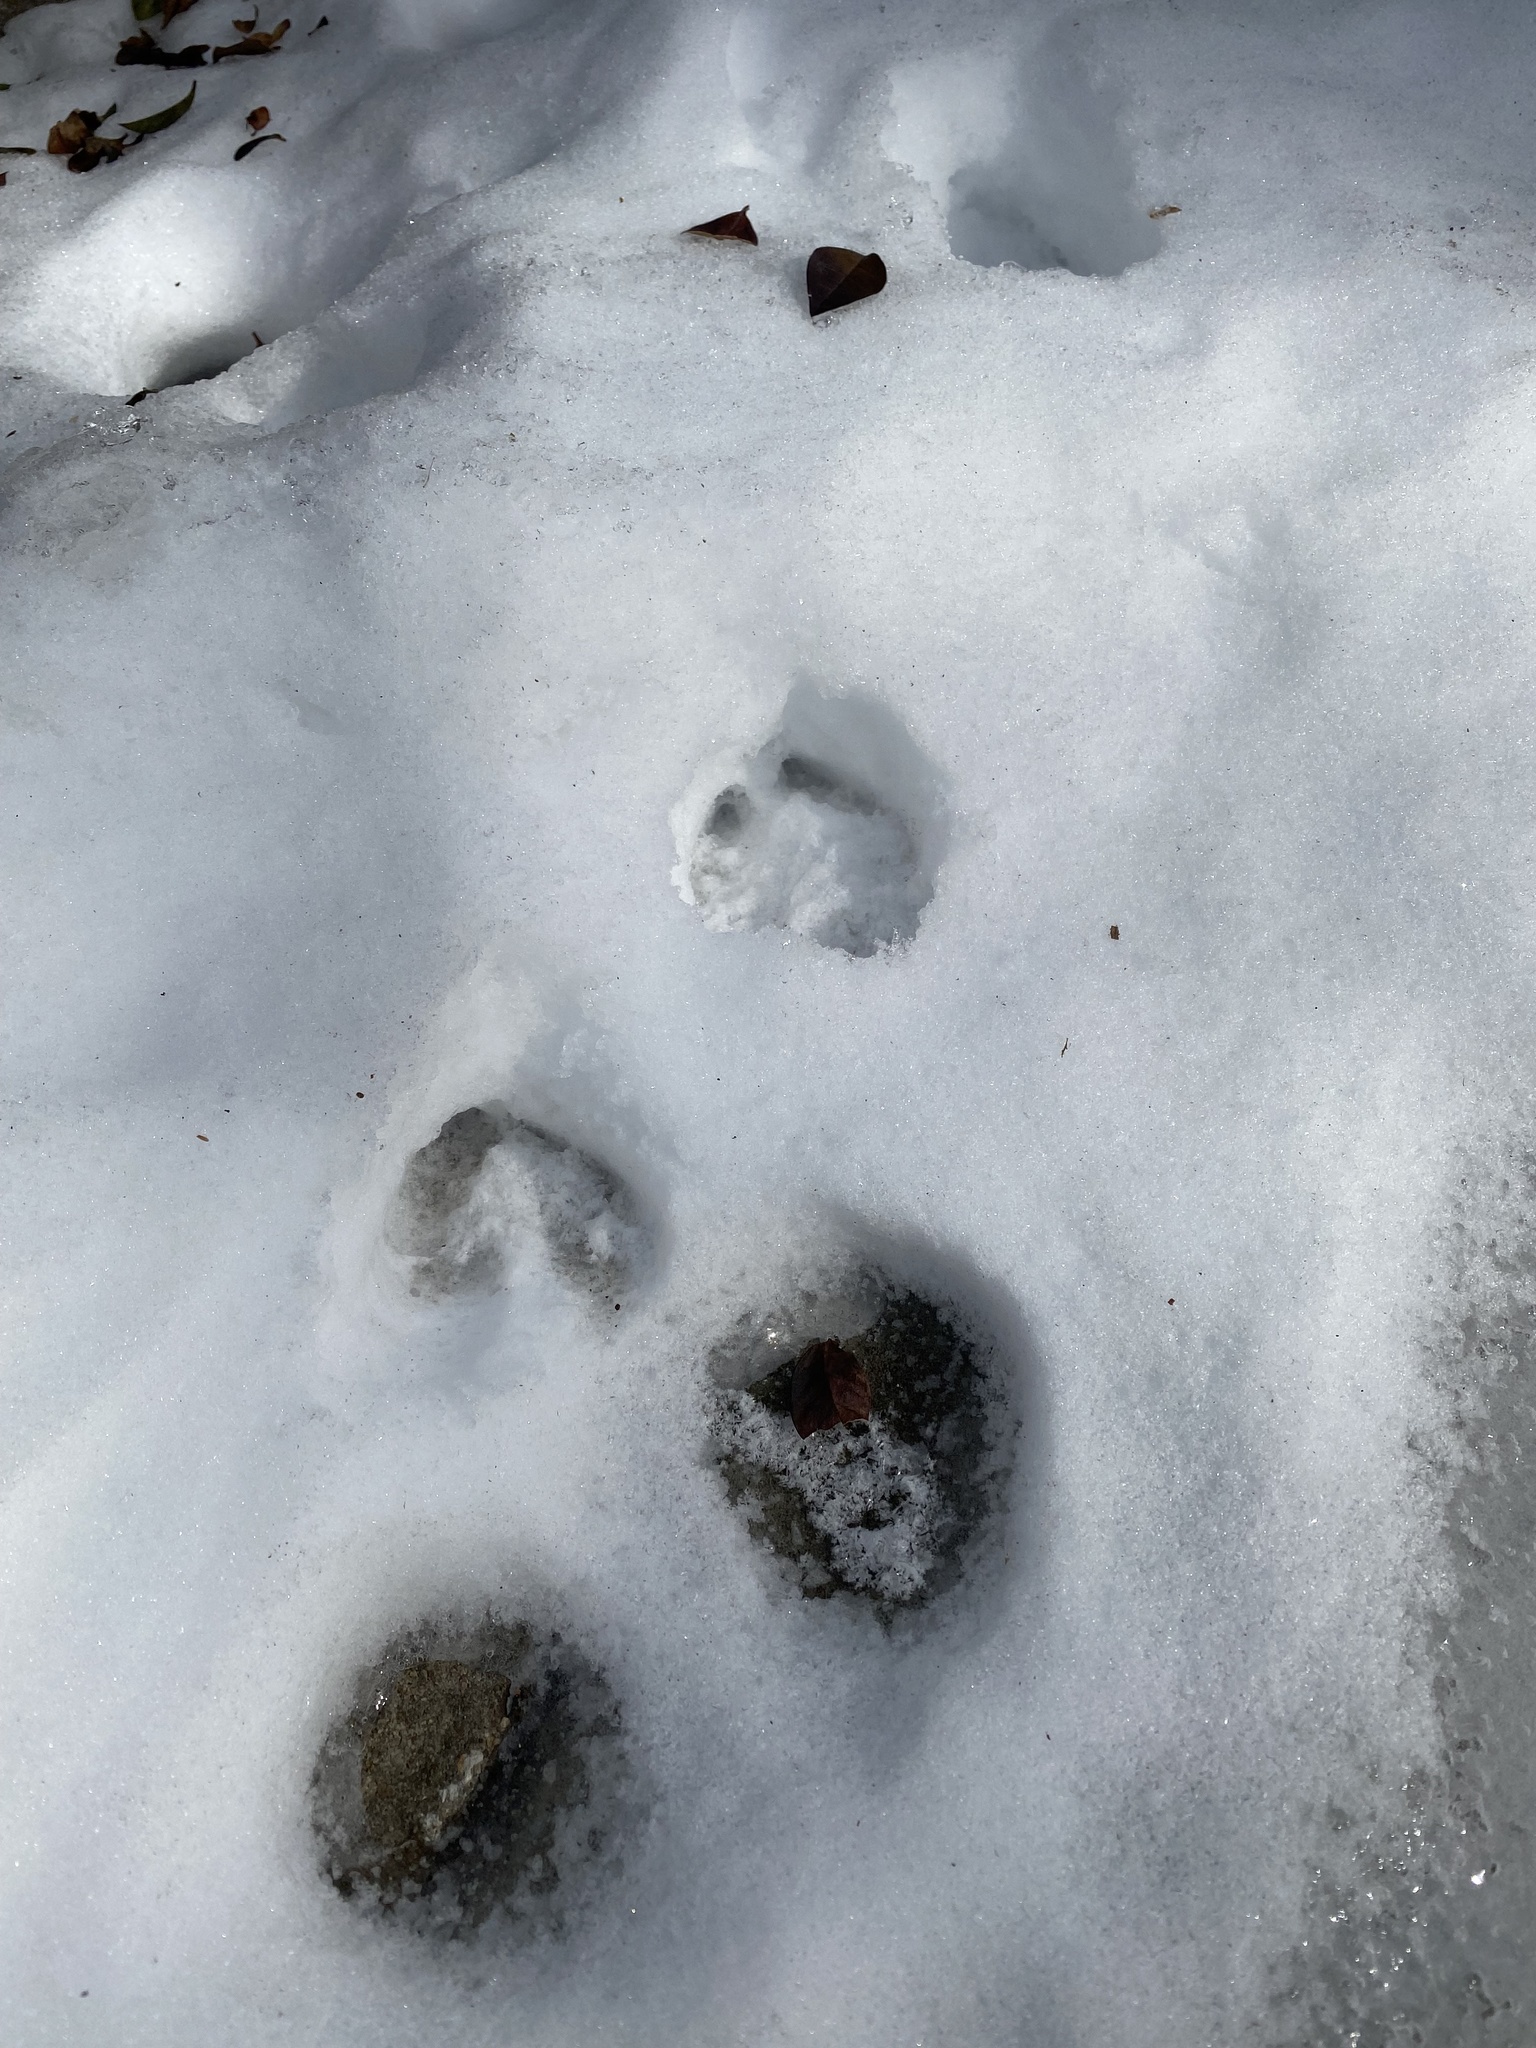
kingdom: Animalia
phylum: Chordata
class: Mammalia
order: Artiodactyla
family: Cervidae
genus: Odocoileus
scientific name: Odocoileus virginianus
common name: White-tailed deer
